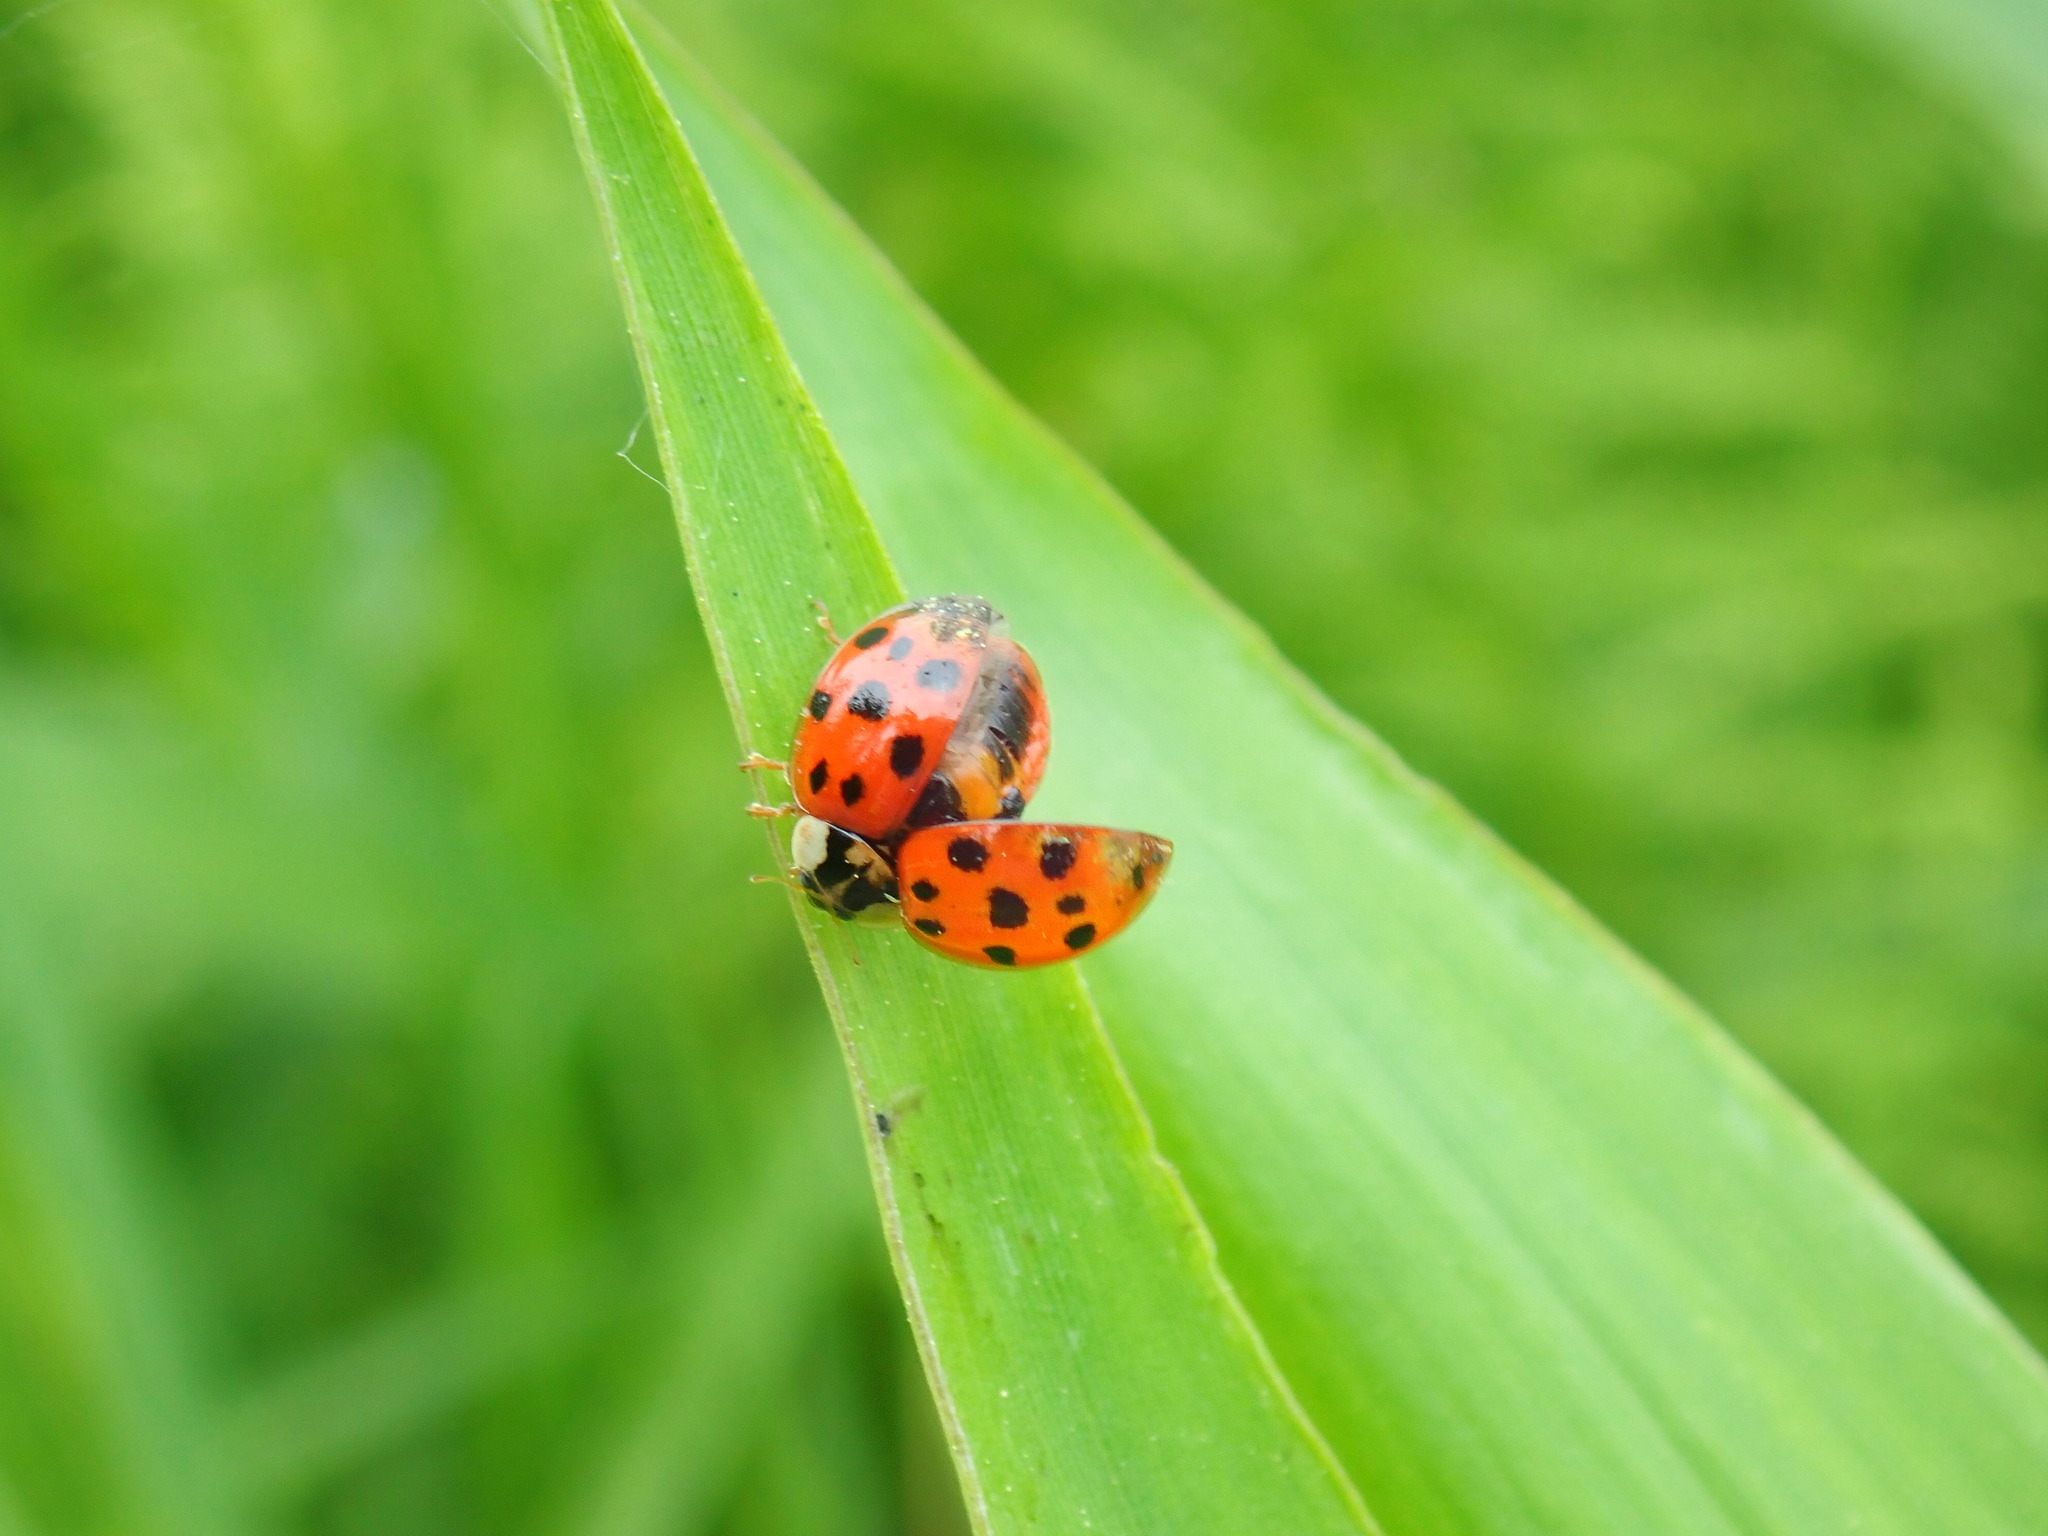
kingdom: Animalia
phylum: Arthropoda
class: Insecta
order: Coleoptera
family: Coccinellidae
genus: Harmonia
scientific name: Harmonia axyridis
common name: Harlequin ladybird
